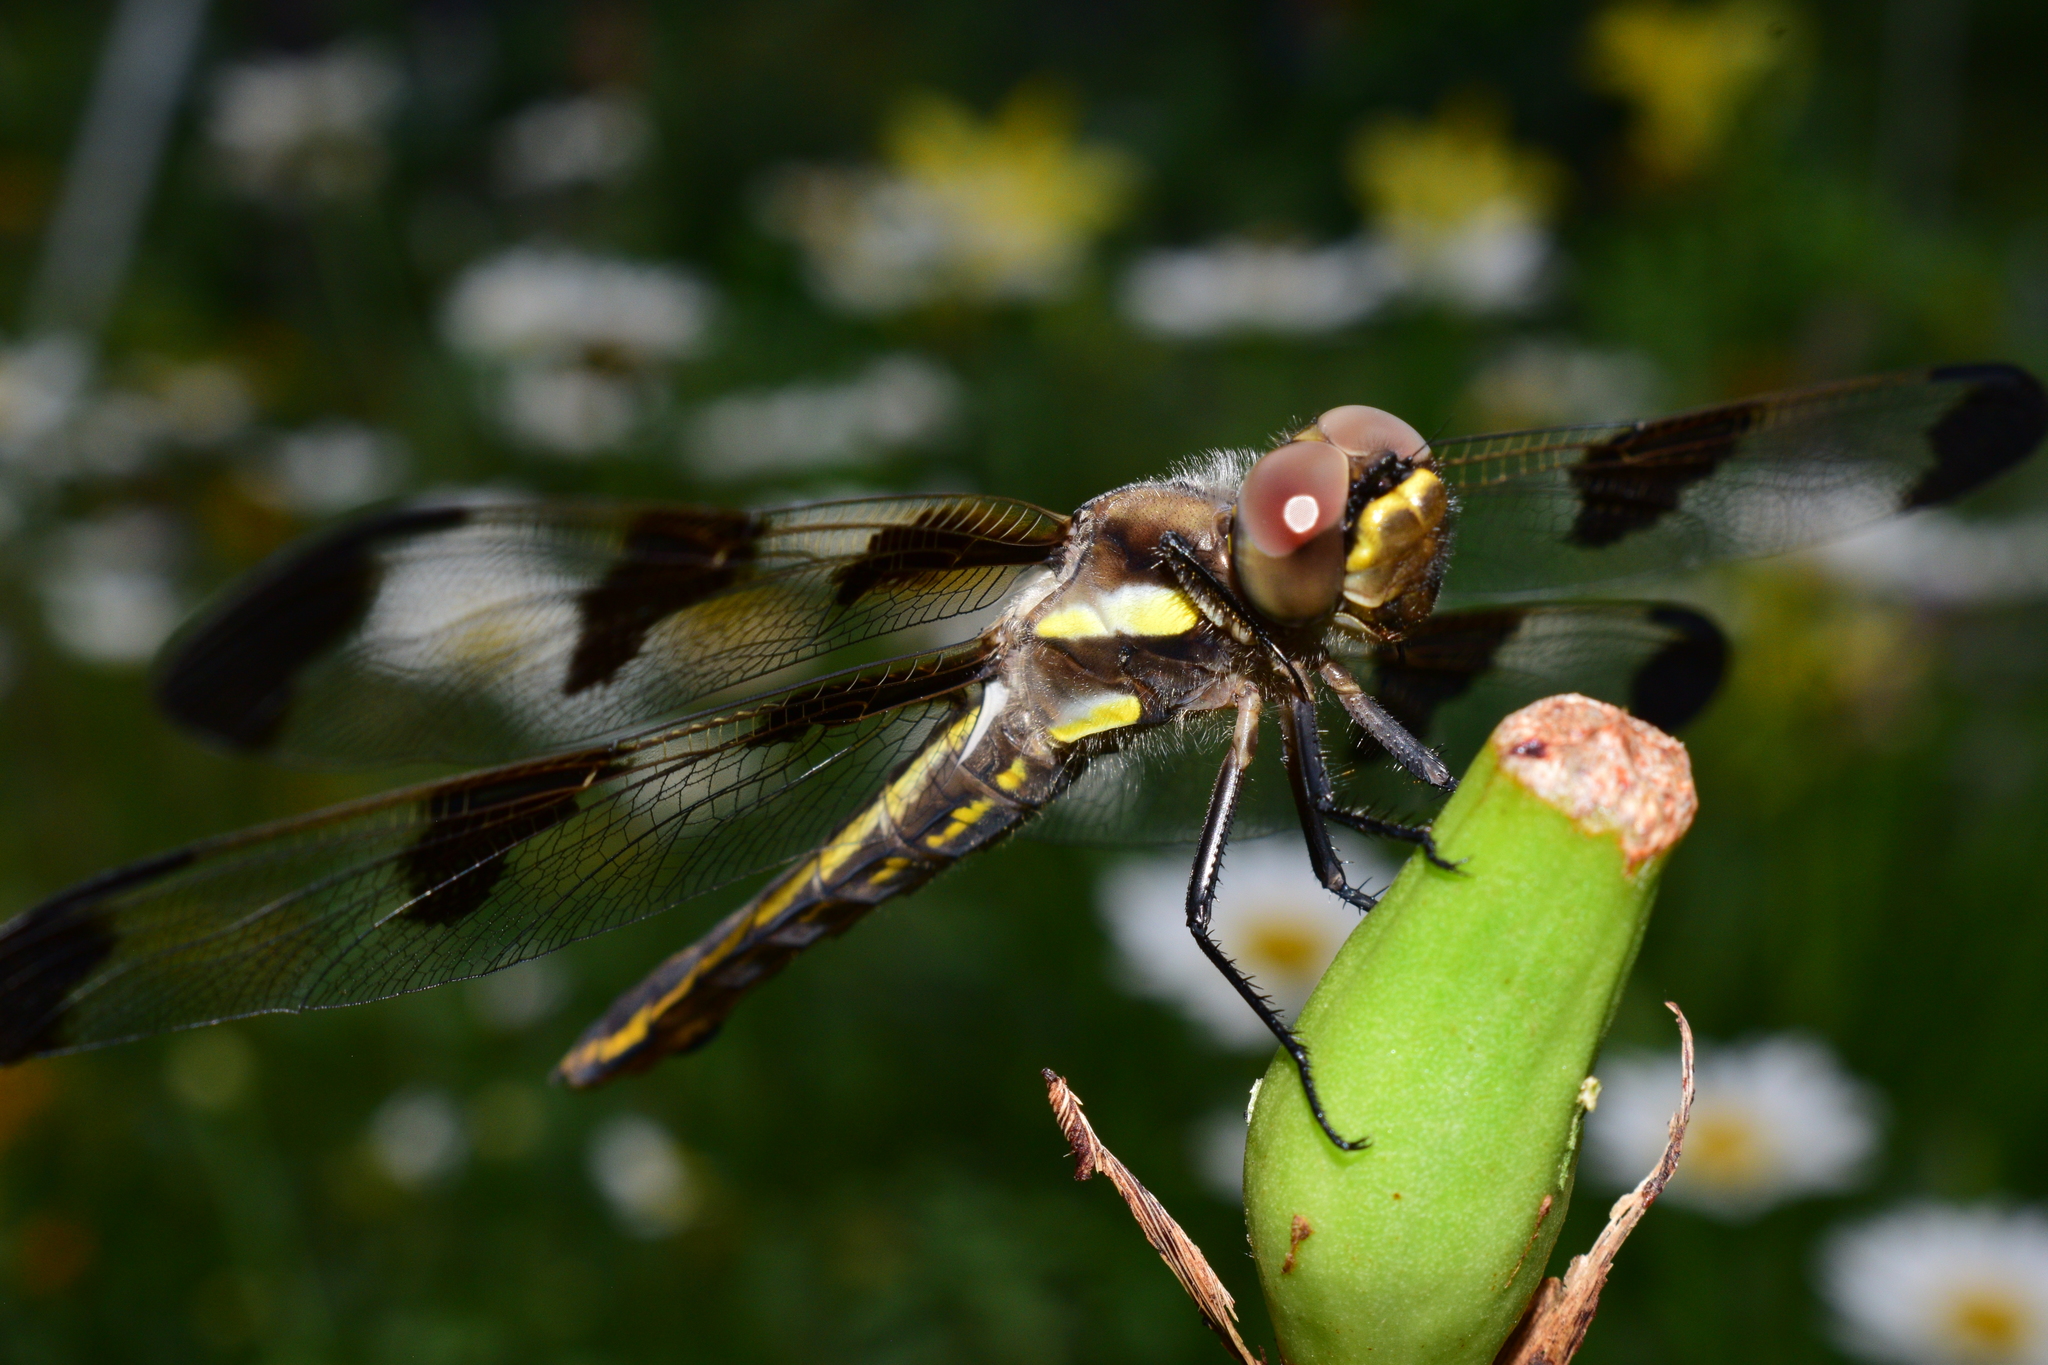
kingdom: Animalia
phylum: Arthropoda
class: Insecta
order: Odonata
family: Libellulidae
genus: Libellula
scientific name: Libellula pulchella
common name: Twelve-spotted skimmer
